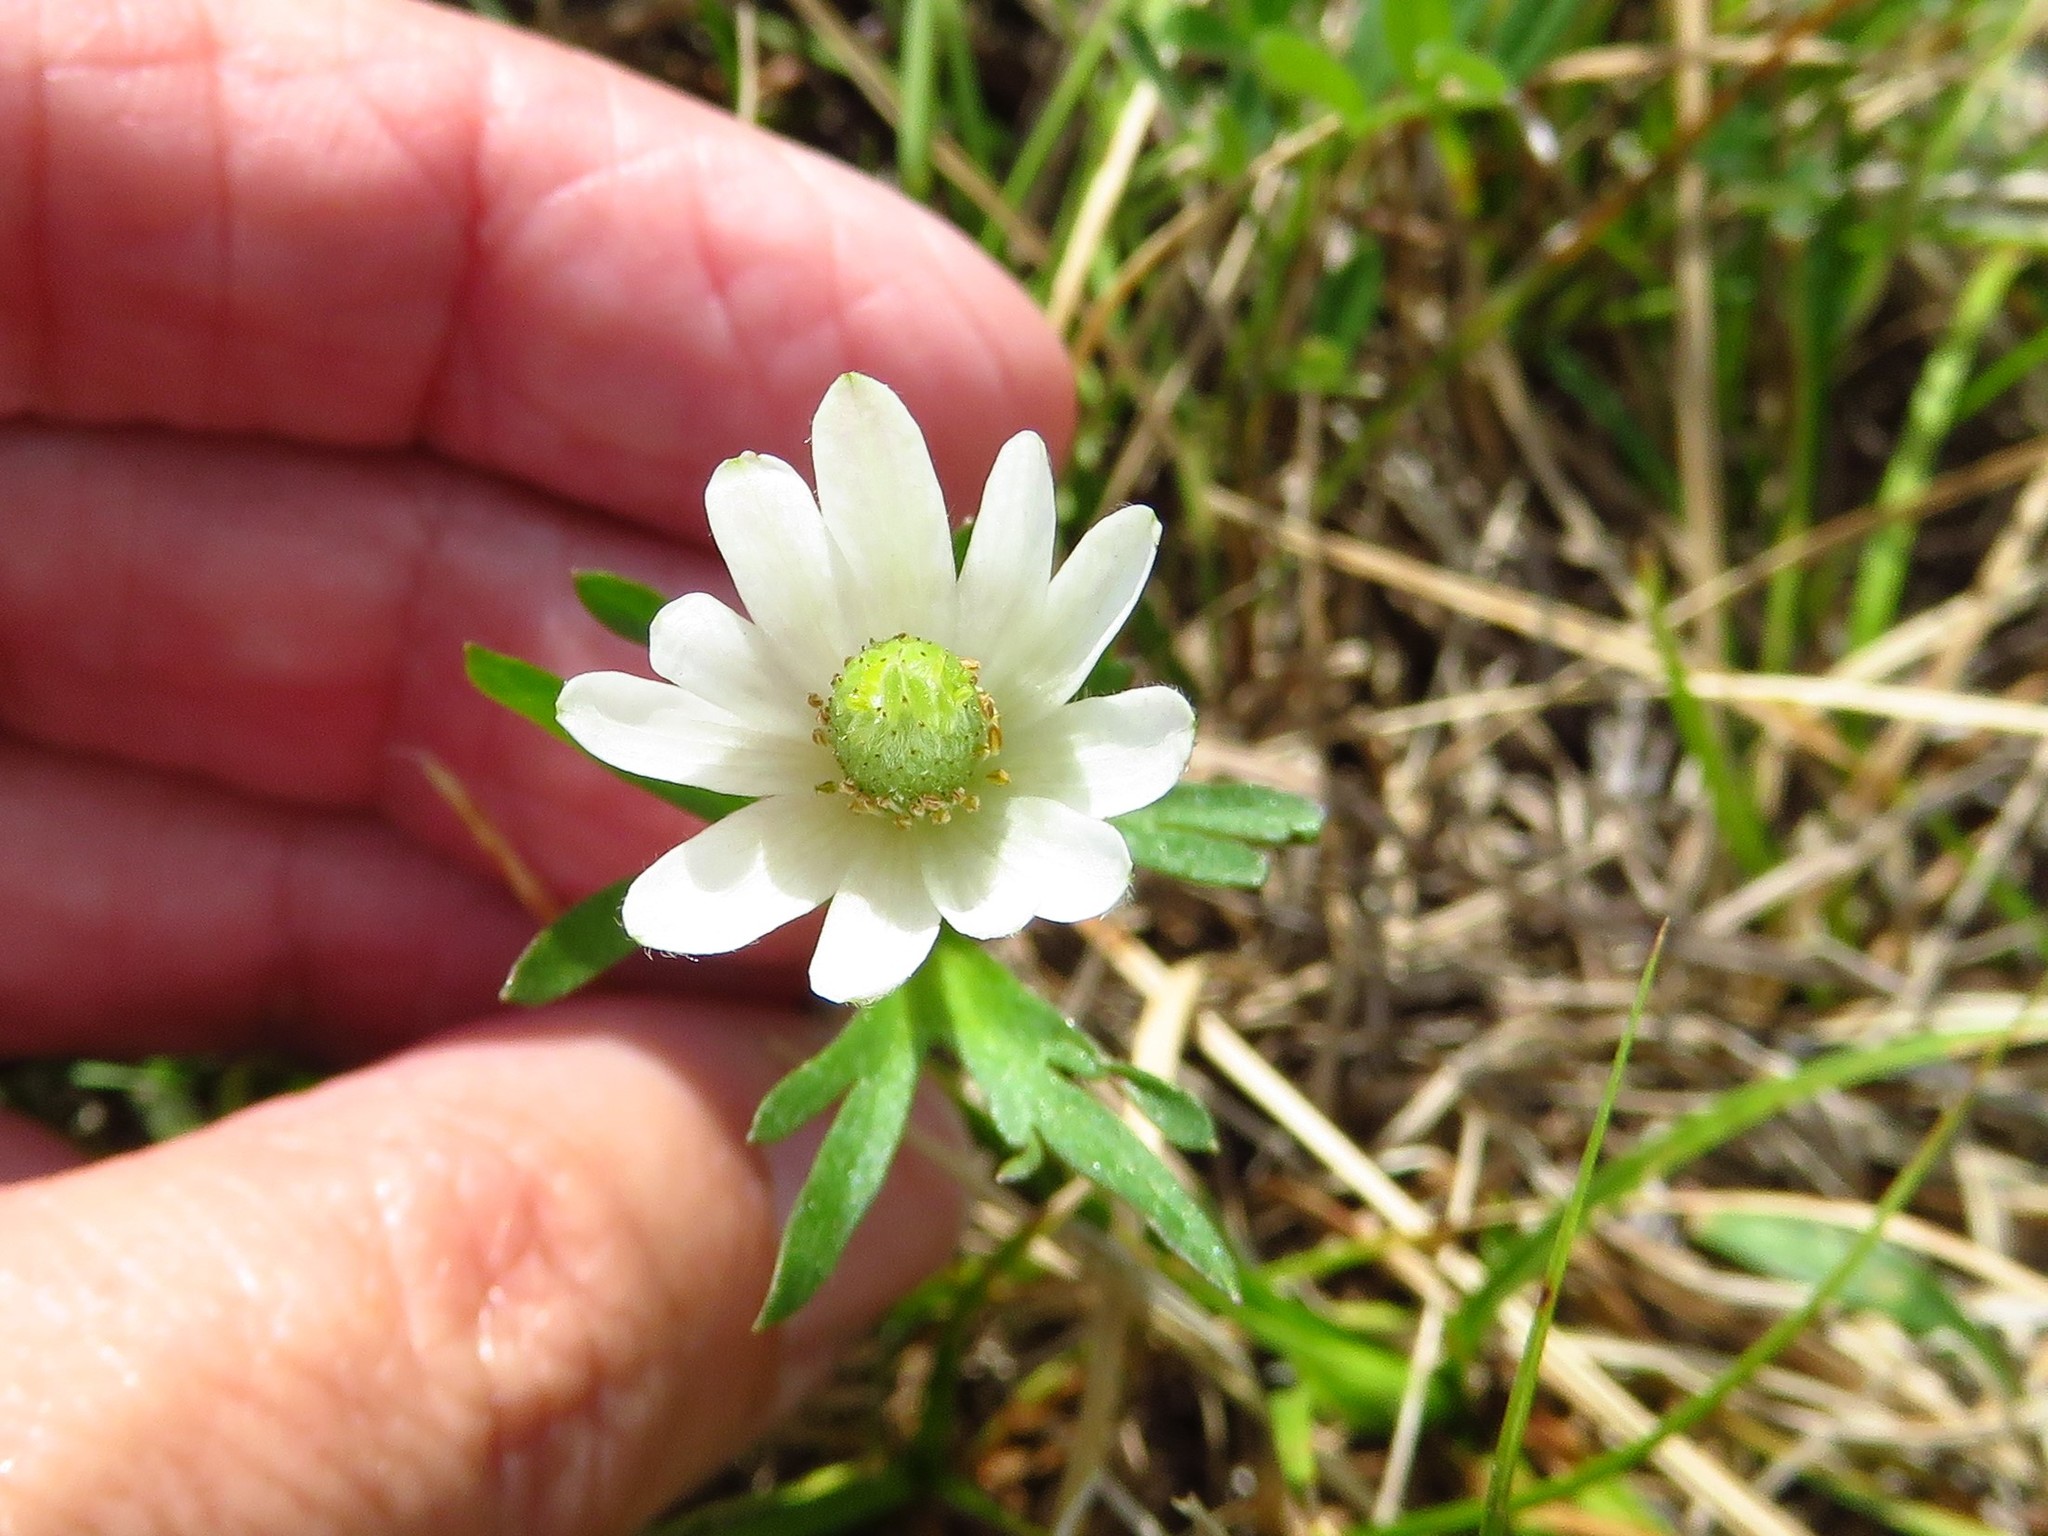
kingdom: Plantae
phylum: Tracheophyta
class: Magnoliopsida
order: Ranunculales
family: Ranunculaceae
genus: Anemone
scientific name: Anemone berlandieri
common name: Ten-petal anemone
